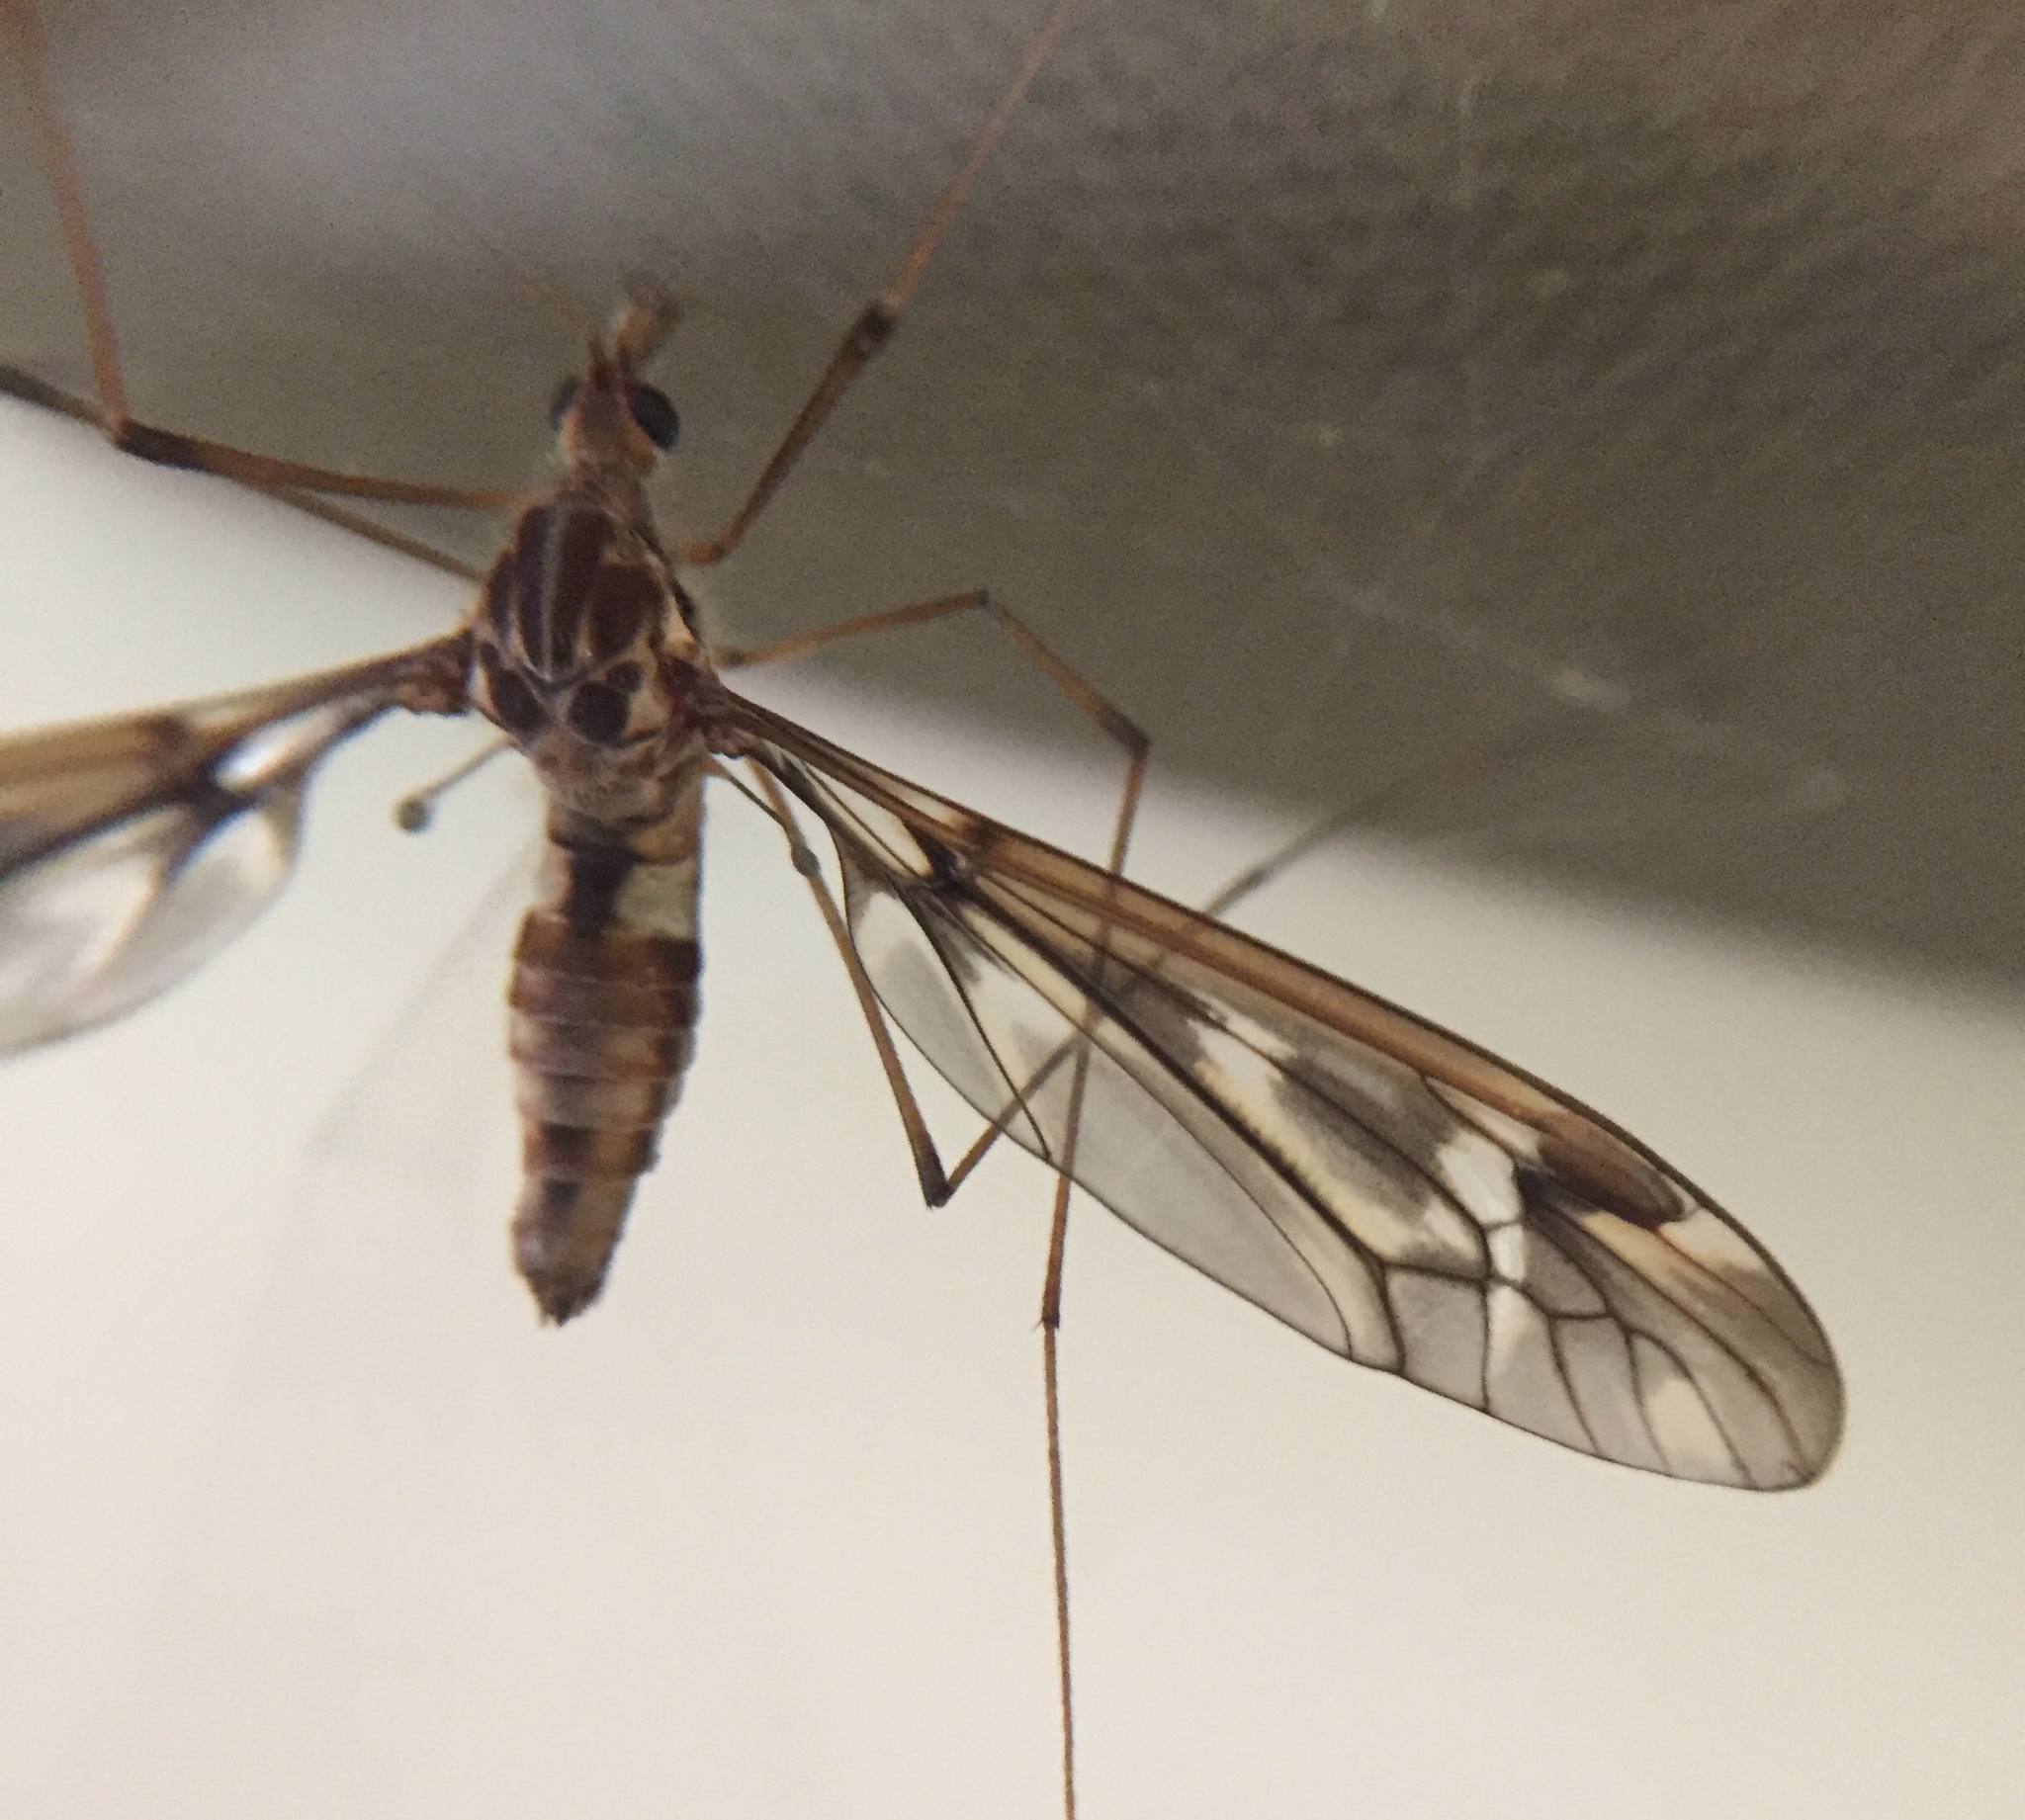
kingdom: Animalia
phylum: Arthropoda
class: Insecta
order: Diptera
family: Tipulidae
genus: Leptotarsus
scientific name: Leptotarsus variegatus
